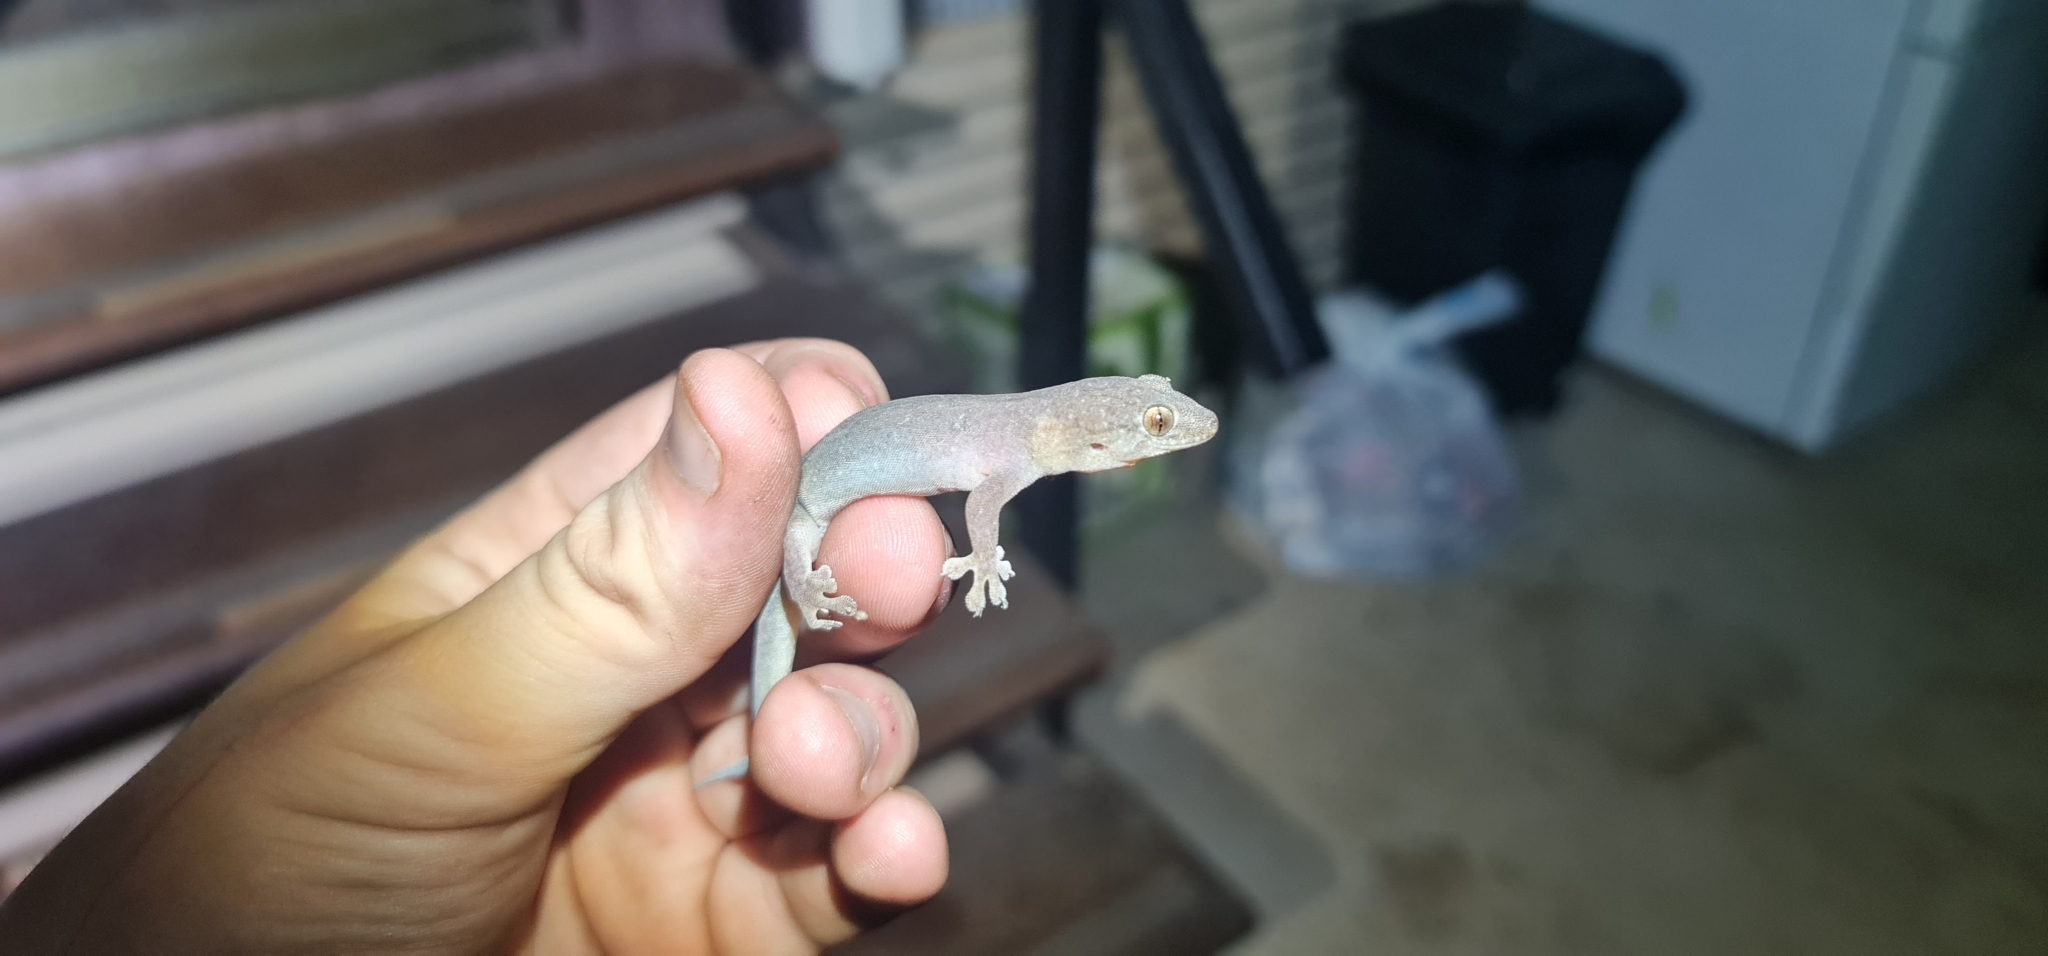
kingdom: Animalia
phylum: Chordata
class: Squamata
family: Gekkonidae
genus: Gehyra
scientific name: Gehyra australis
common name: House gecko
